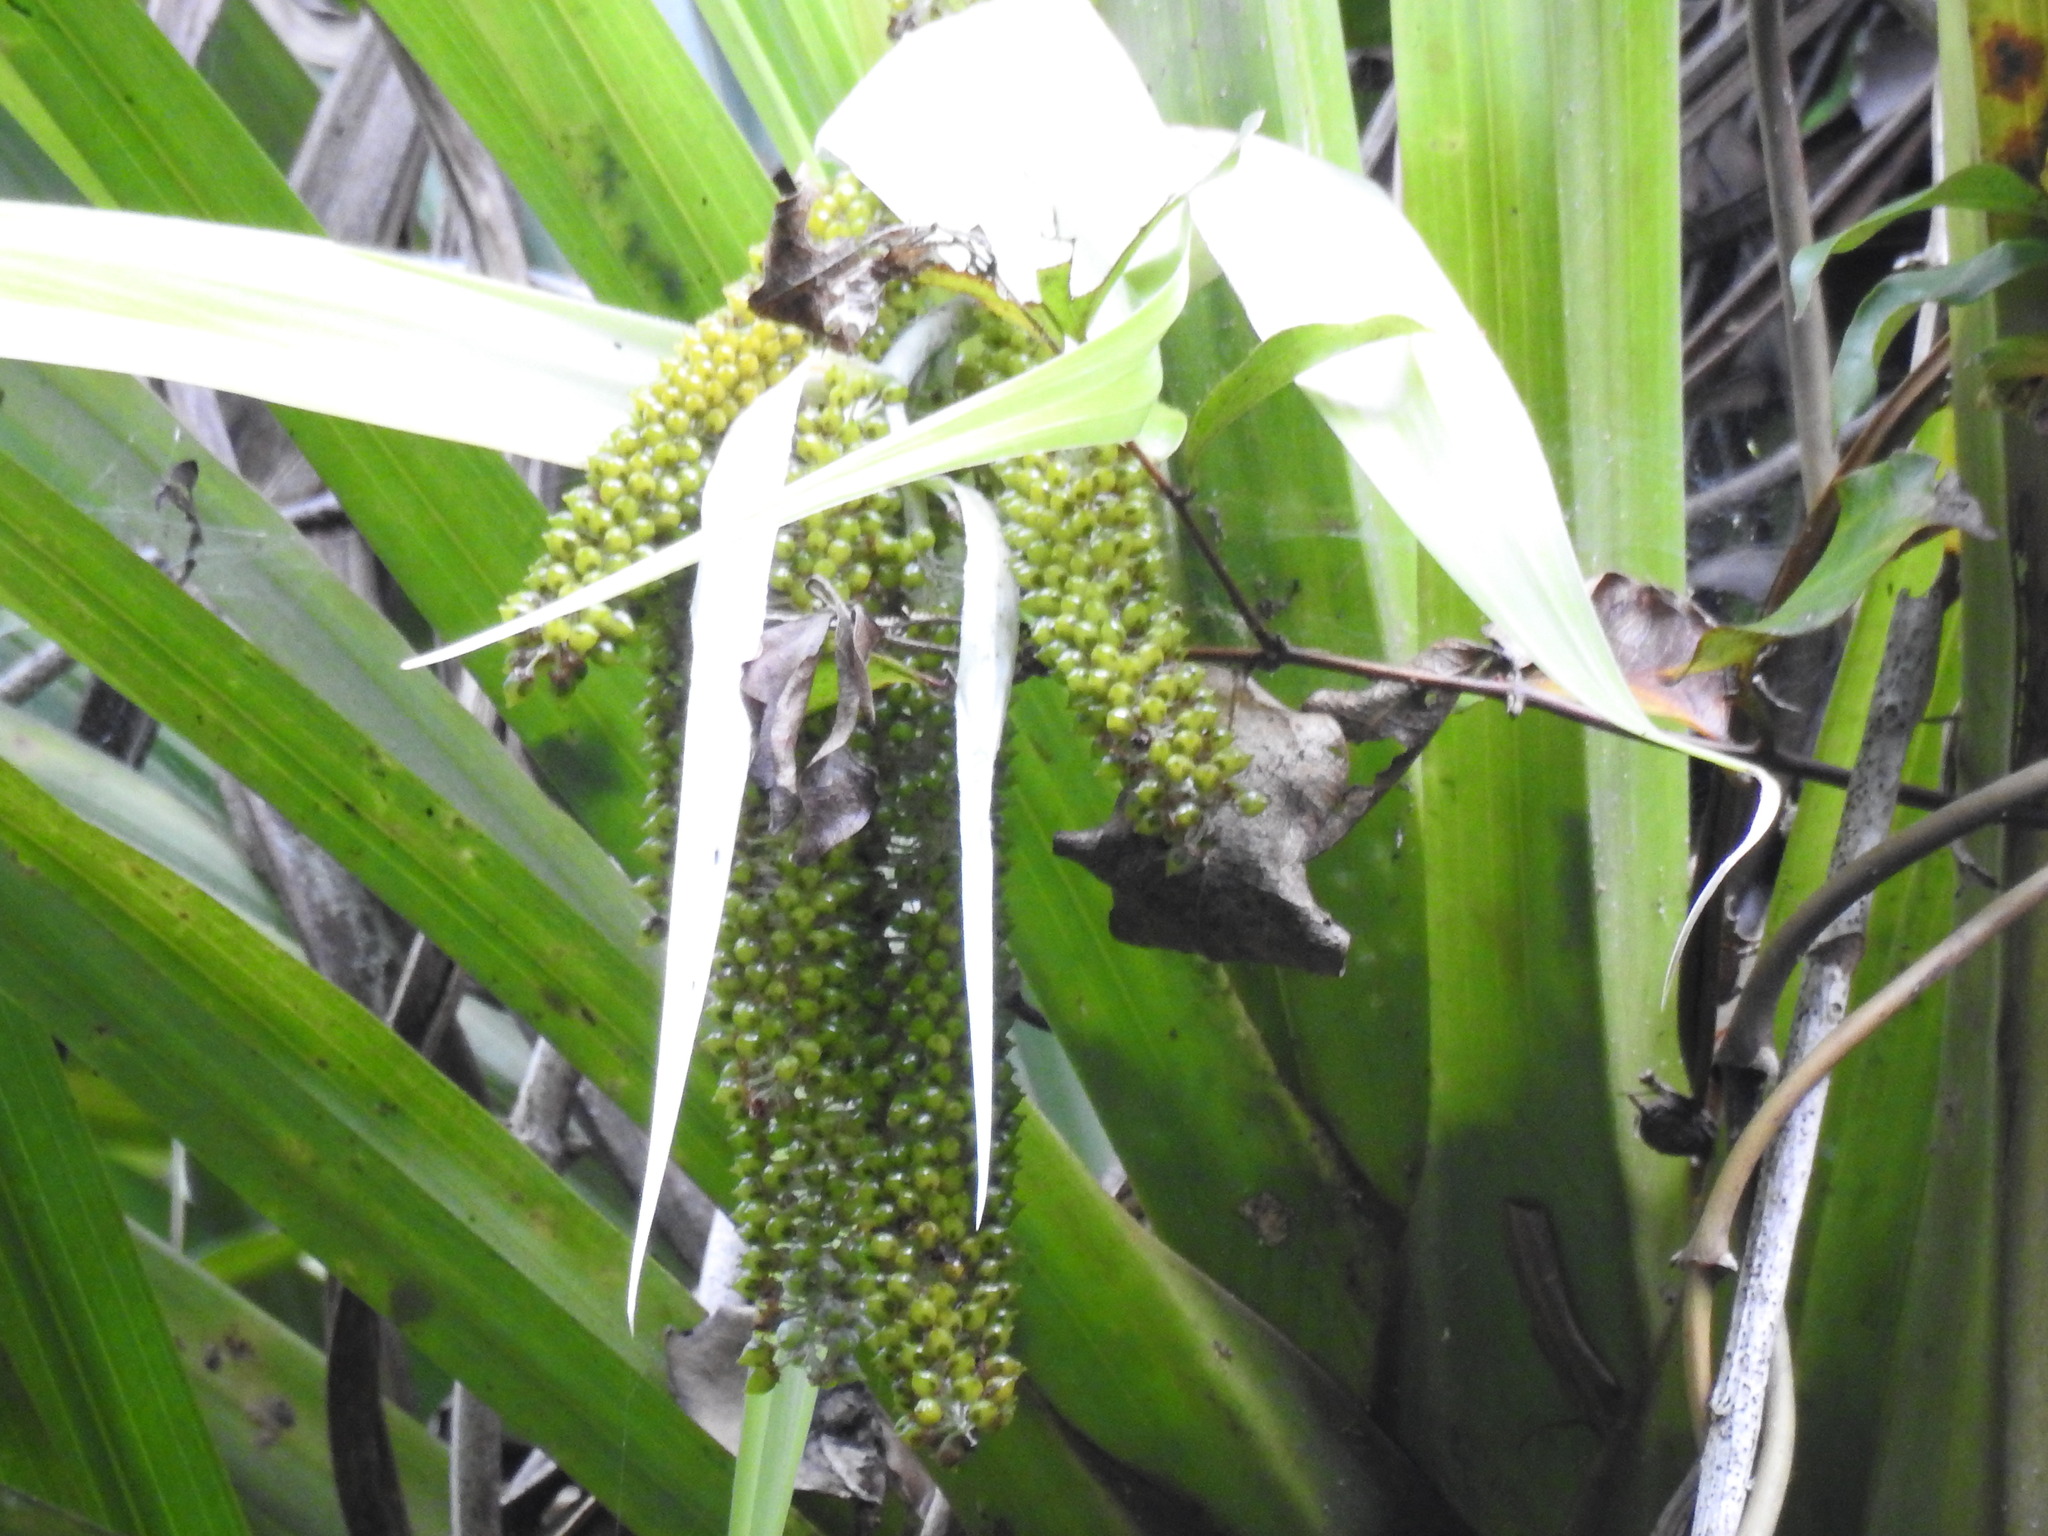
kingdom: Plantae
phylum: Tracheophyta
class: Liliopsida
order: Asparagales
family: Asteliaceae
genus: Astelia
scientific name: Astelia hastata
